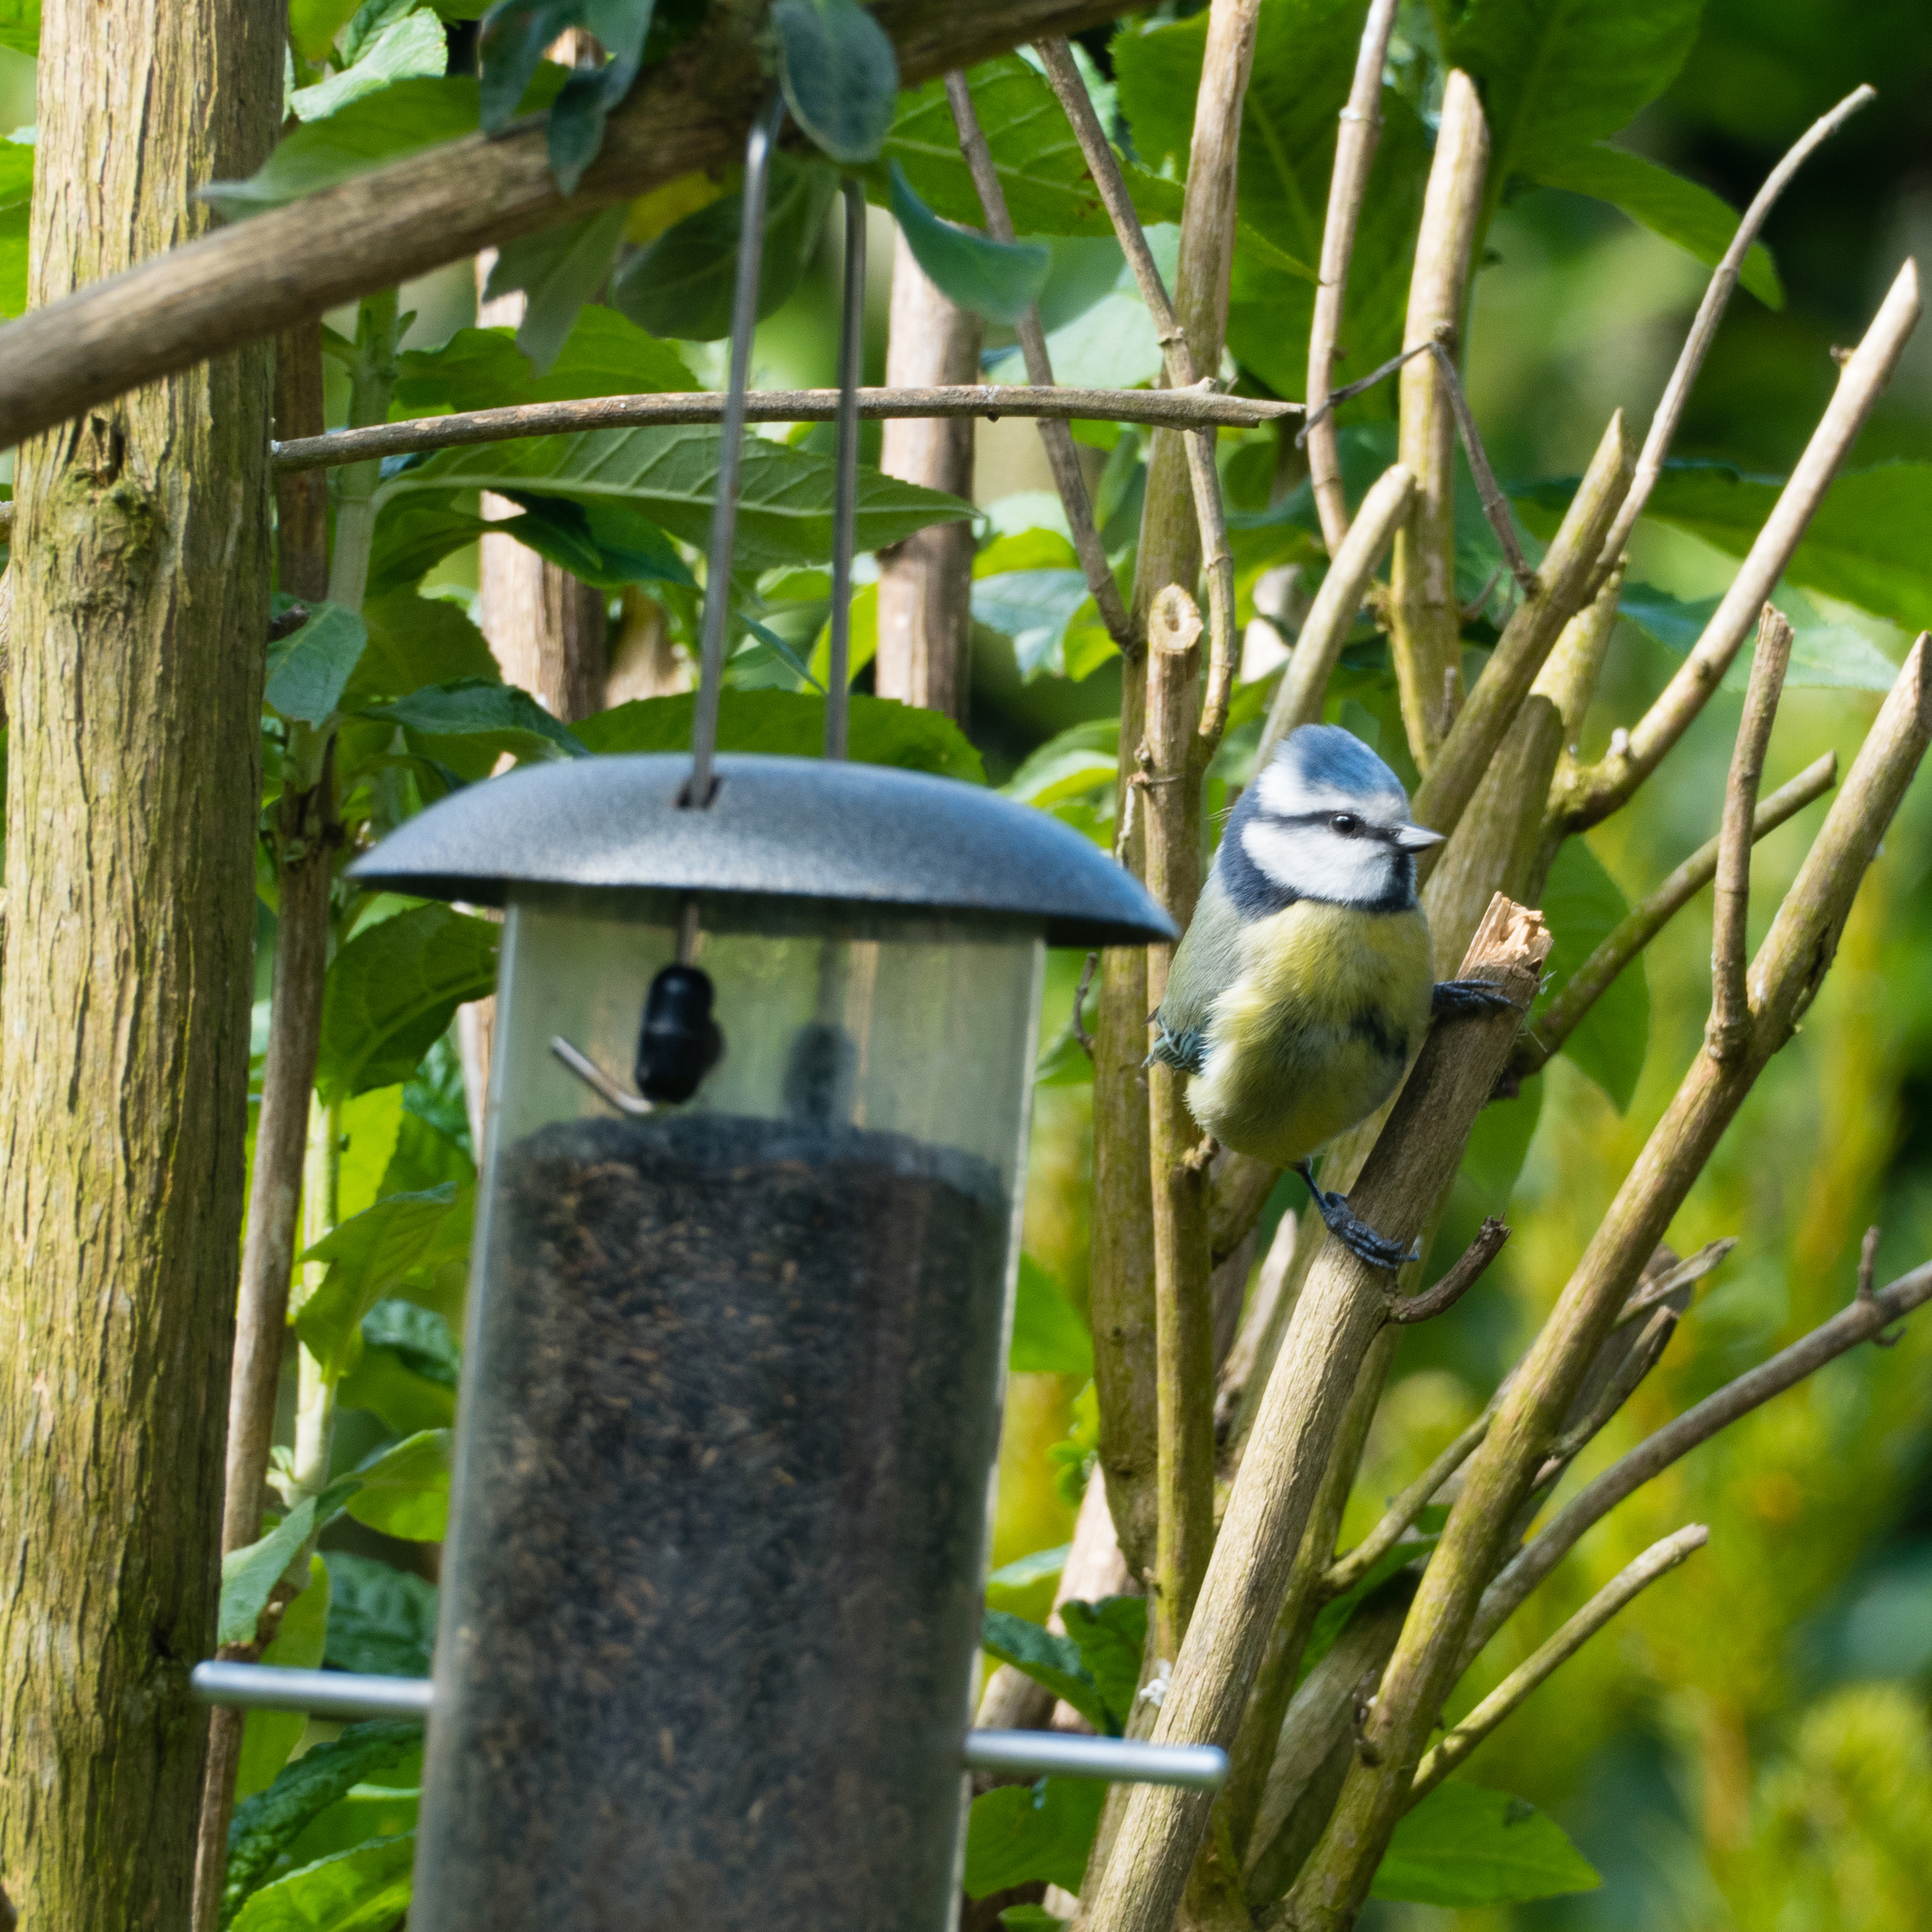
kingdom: Animalia
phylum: Chordata
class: Aves
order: Passeriformes
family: Paridae
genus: Cyanistes
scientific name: Cyanistes caeruleus
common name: Eurasian blue tit
